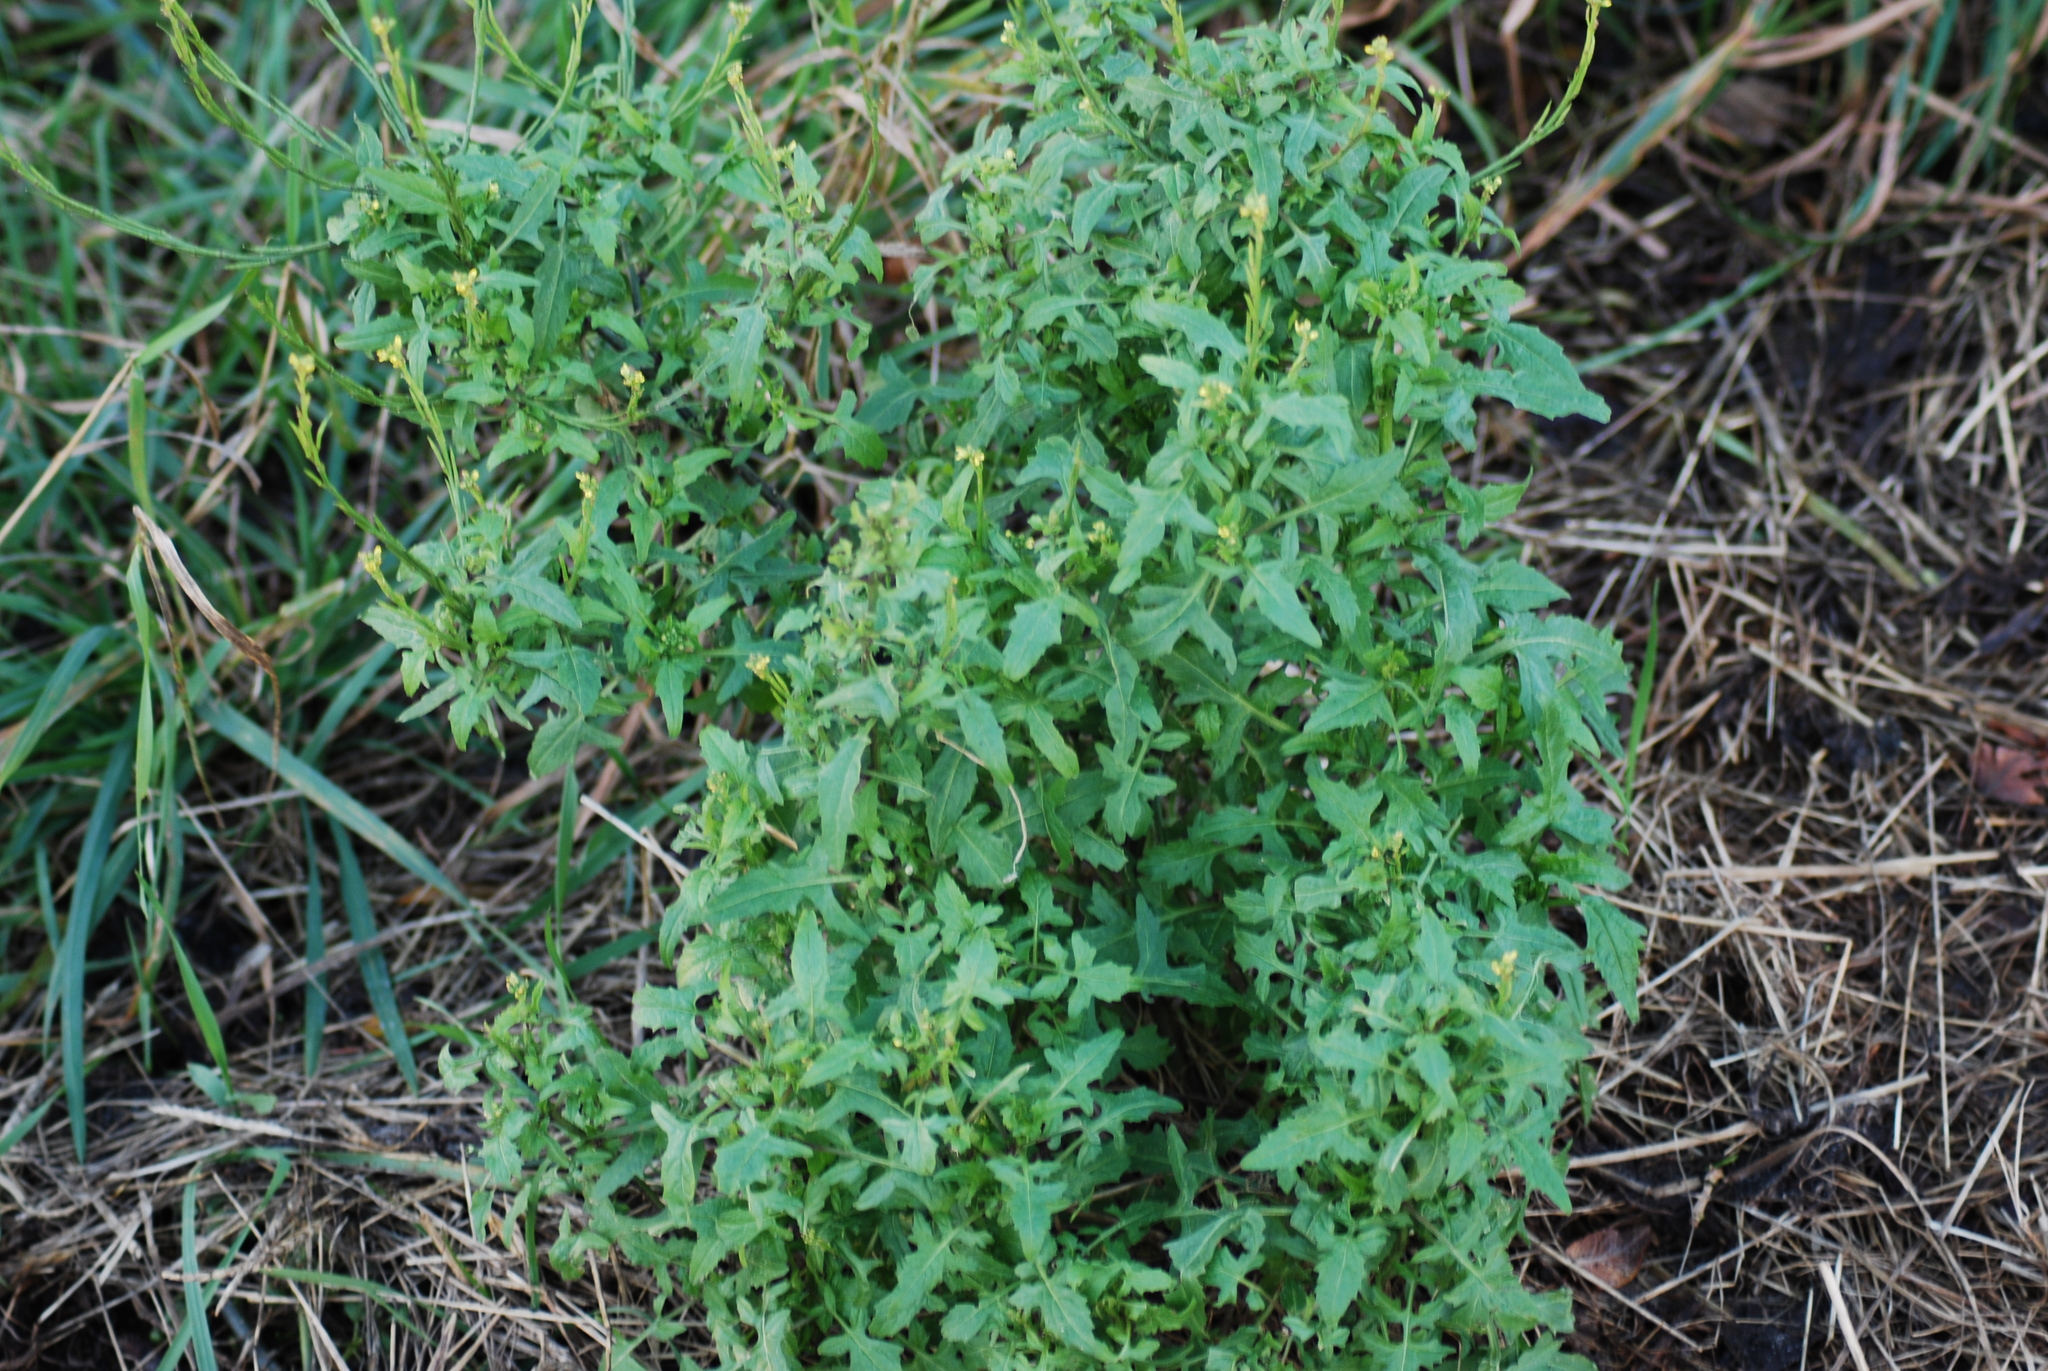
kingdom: Plantae
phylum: Tracheophyta
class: Magnoliopsida
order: Brassicales
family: Brassicaceae
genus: Sisymbrium
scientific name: Sisymbrium officinale
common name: Hedge mustard
